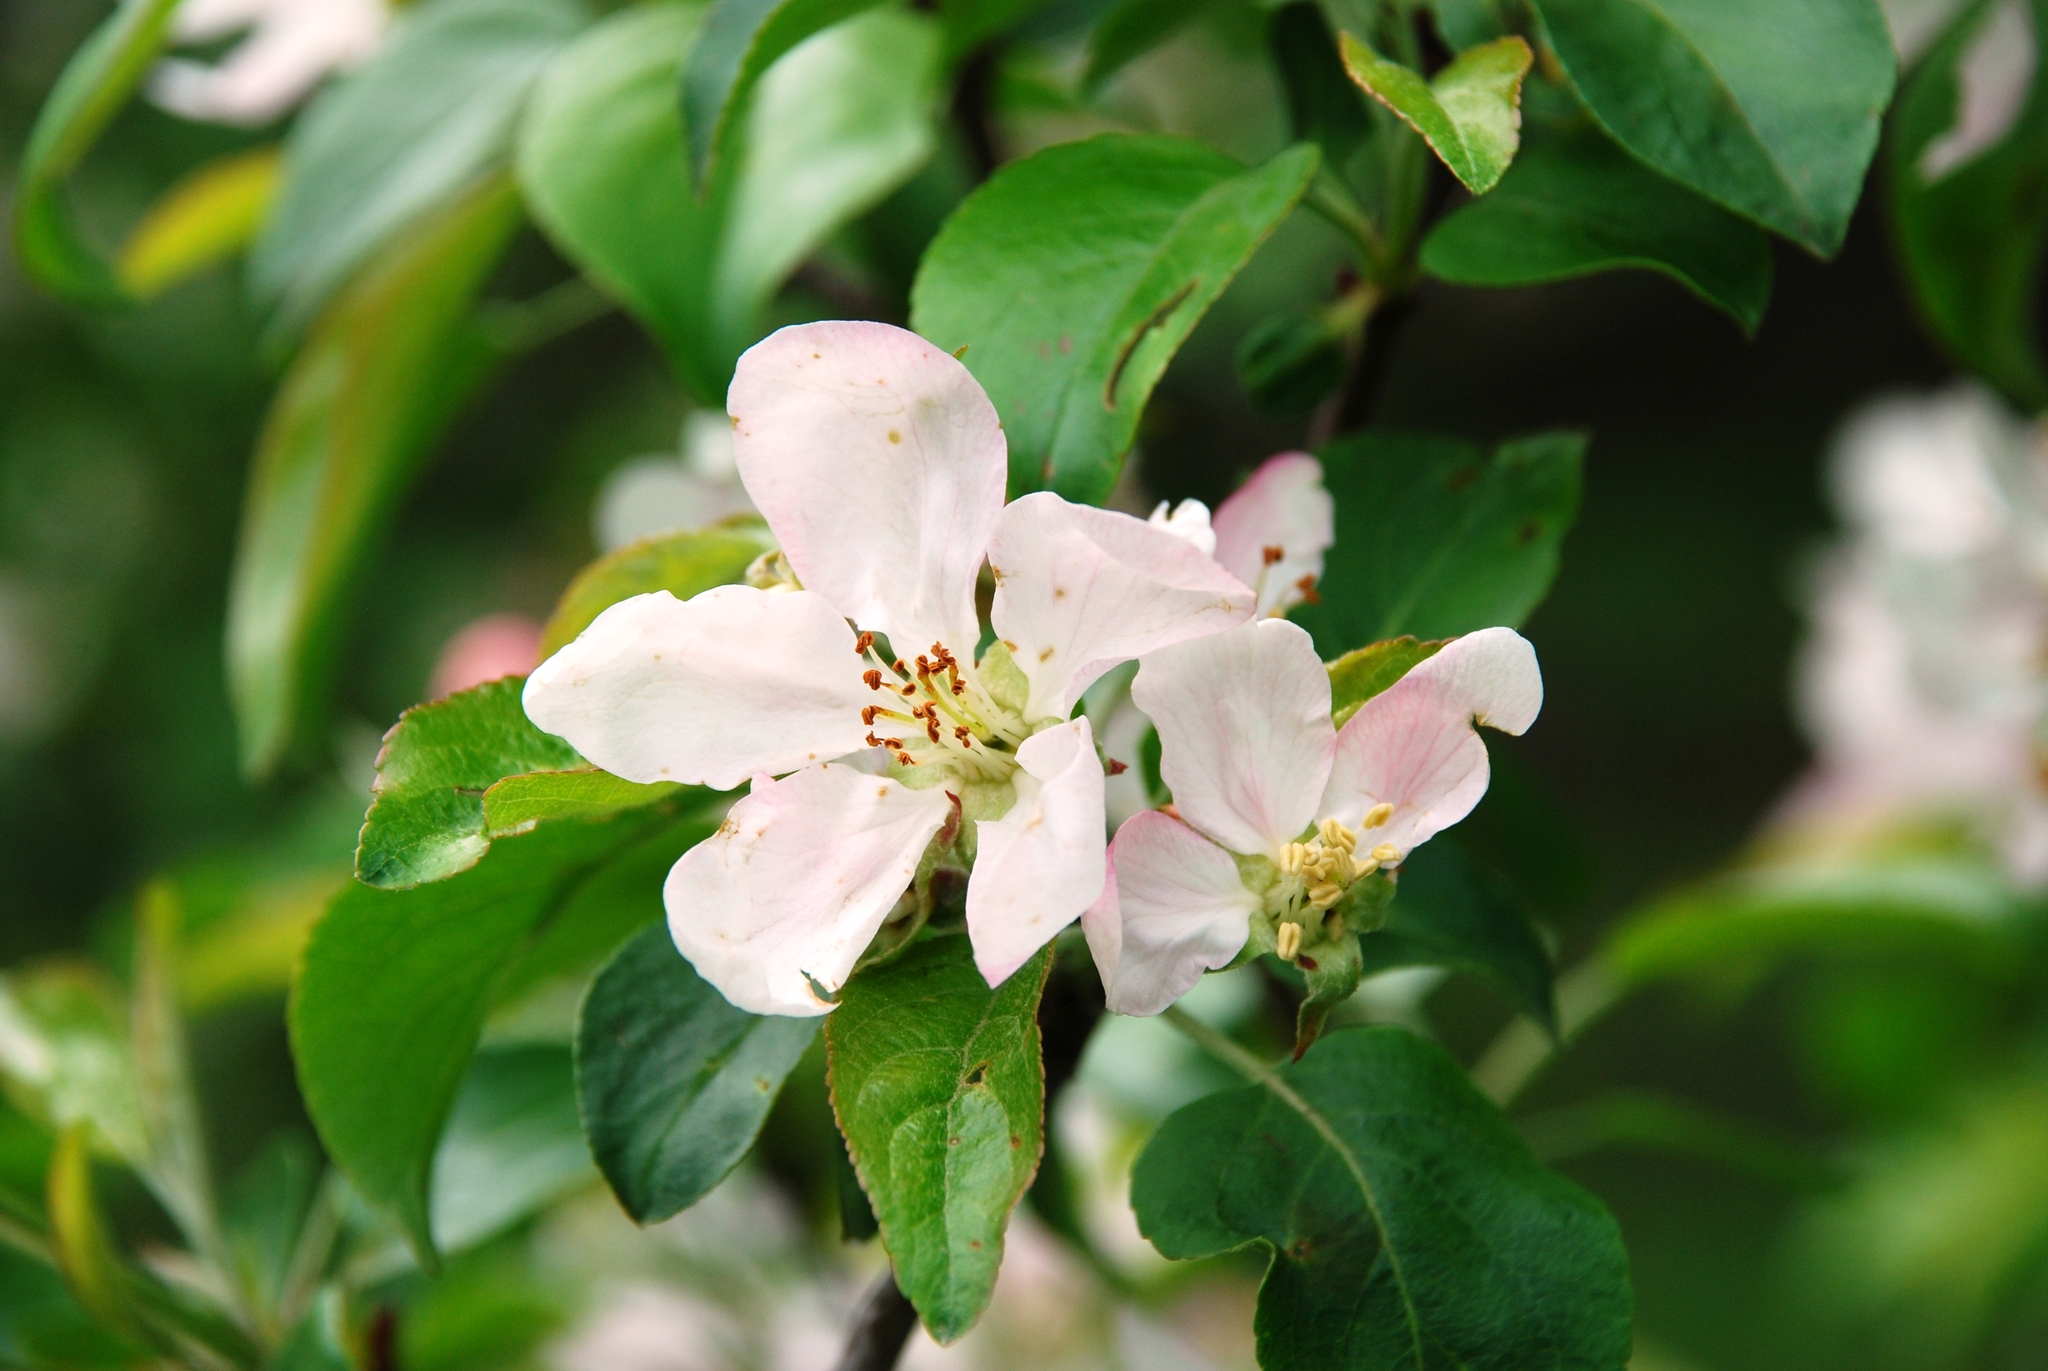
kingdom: Plantae
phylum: Tracheophyta
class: Magnoliopsida
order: Rosales
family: Rosaceae
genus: Malus
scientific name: Malus domestica
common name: Apple
